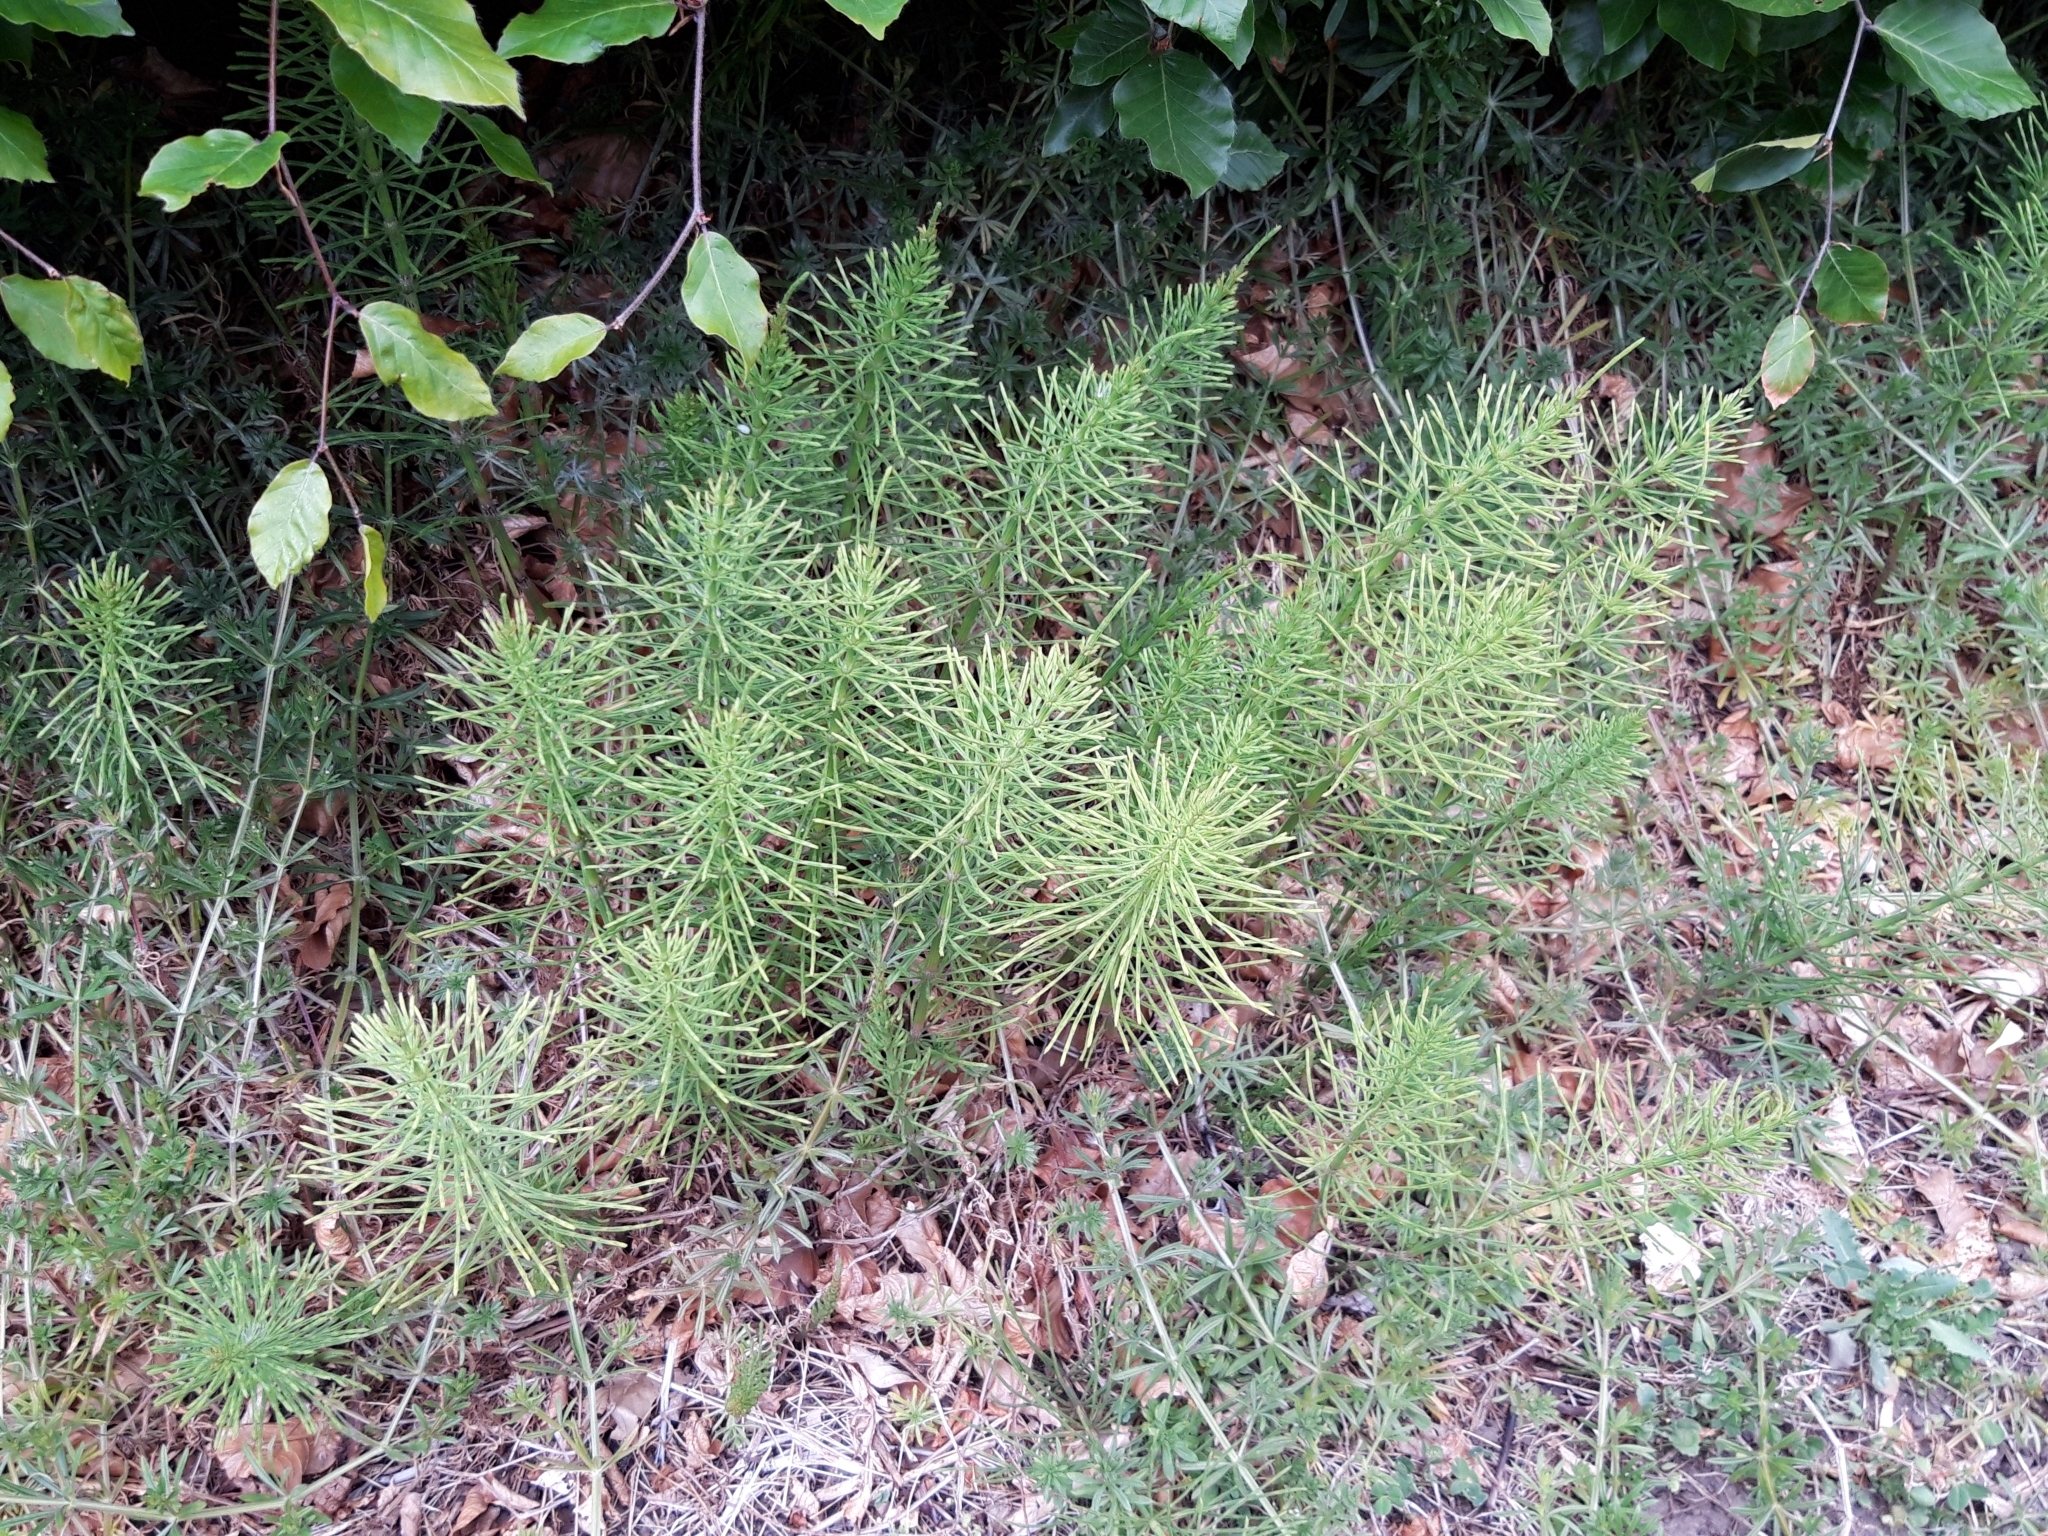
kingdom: Plantae
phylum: Tracheophyta
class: Polypodiopsida
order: Equisetales
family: Equisetaceae
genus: Equisetum
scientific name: Equisetum arvense
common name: Field horsetail
